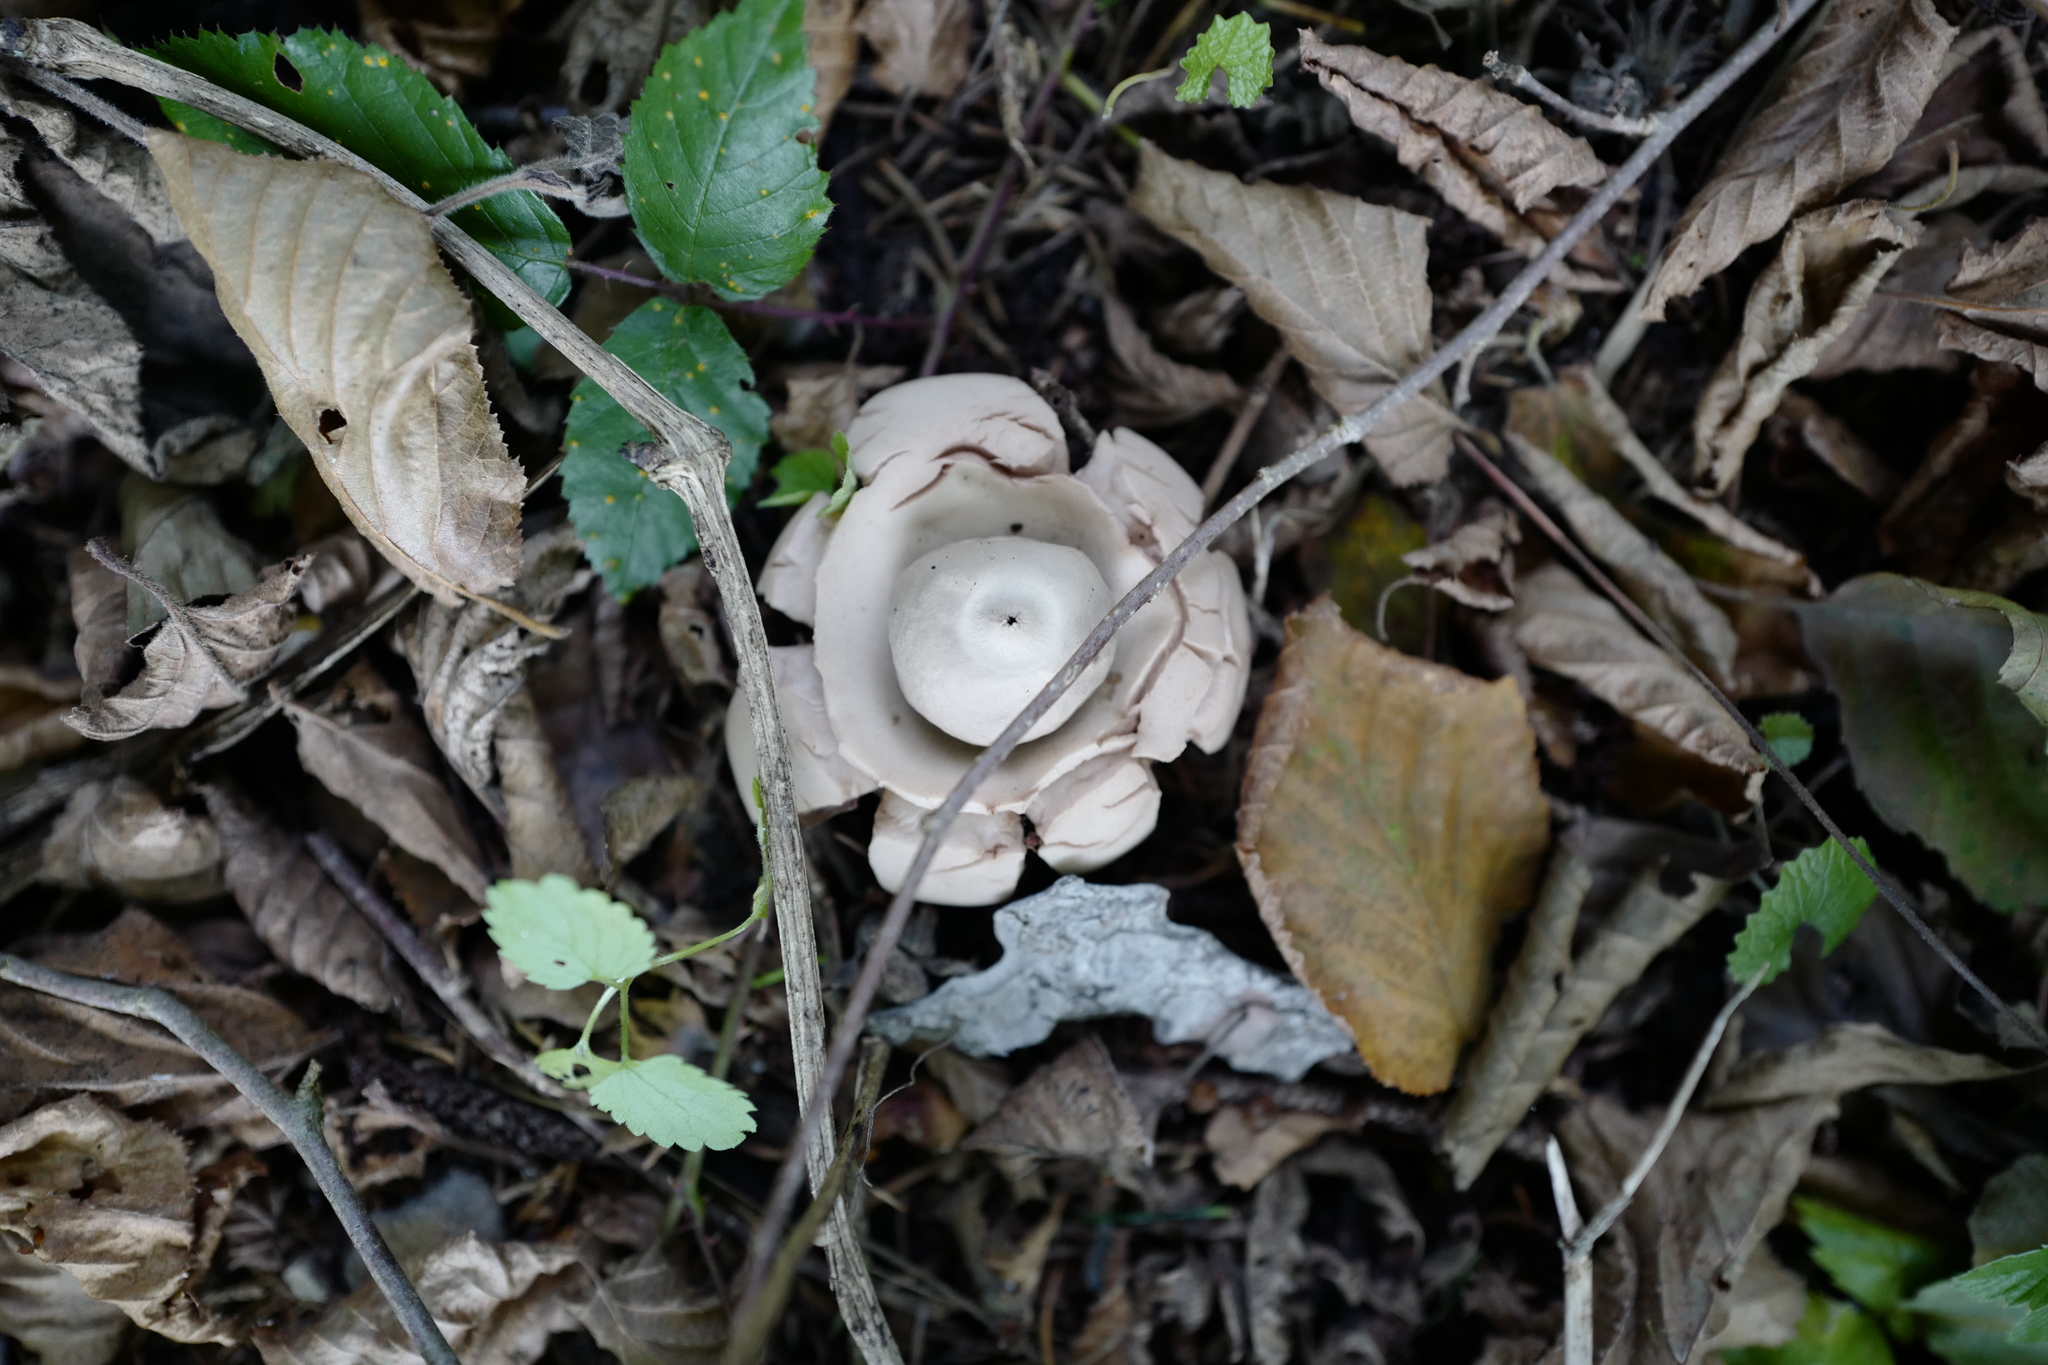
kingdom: Fungi
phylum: Basidiomycota
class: Agaricomycetes
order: Geastrales
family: Geastraceae
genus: Geastrum
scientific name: Geastrum triplex
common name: Collared earthstar
